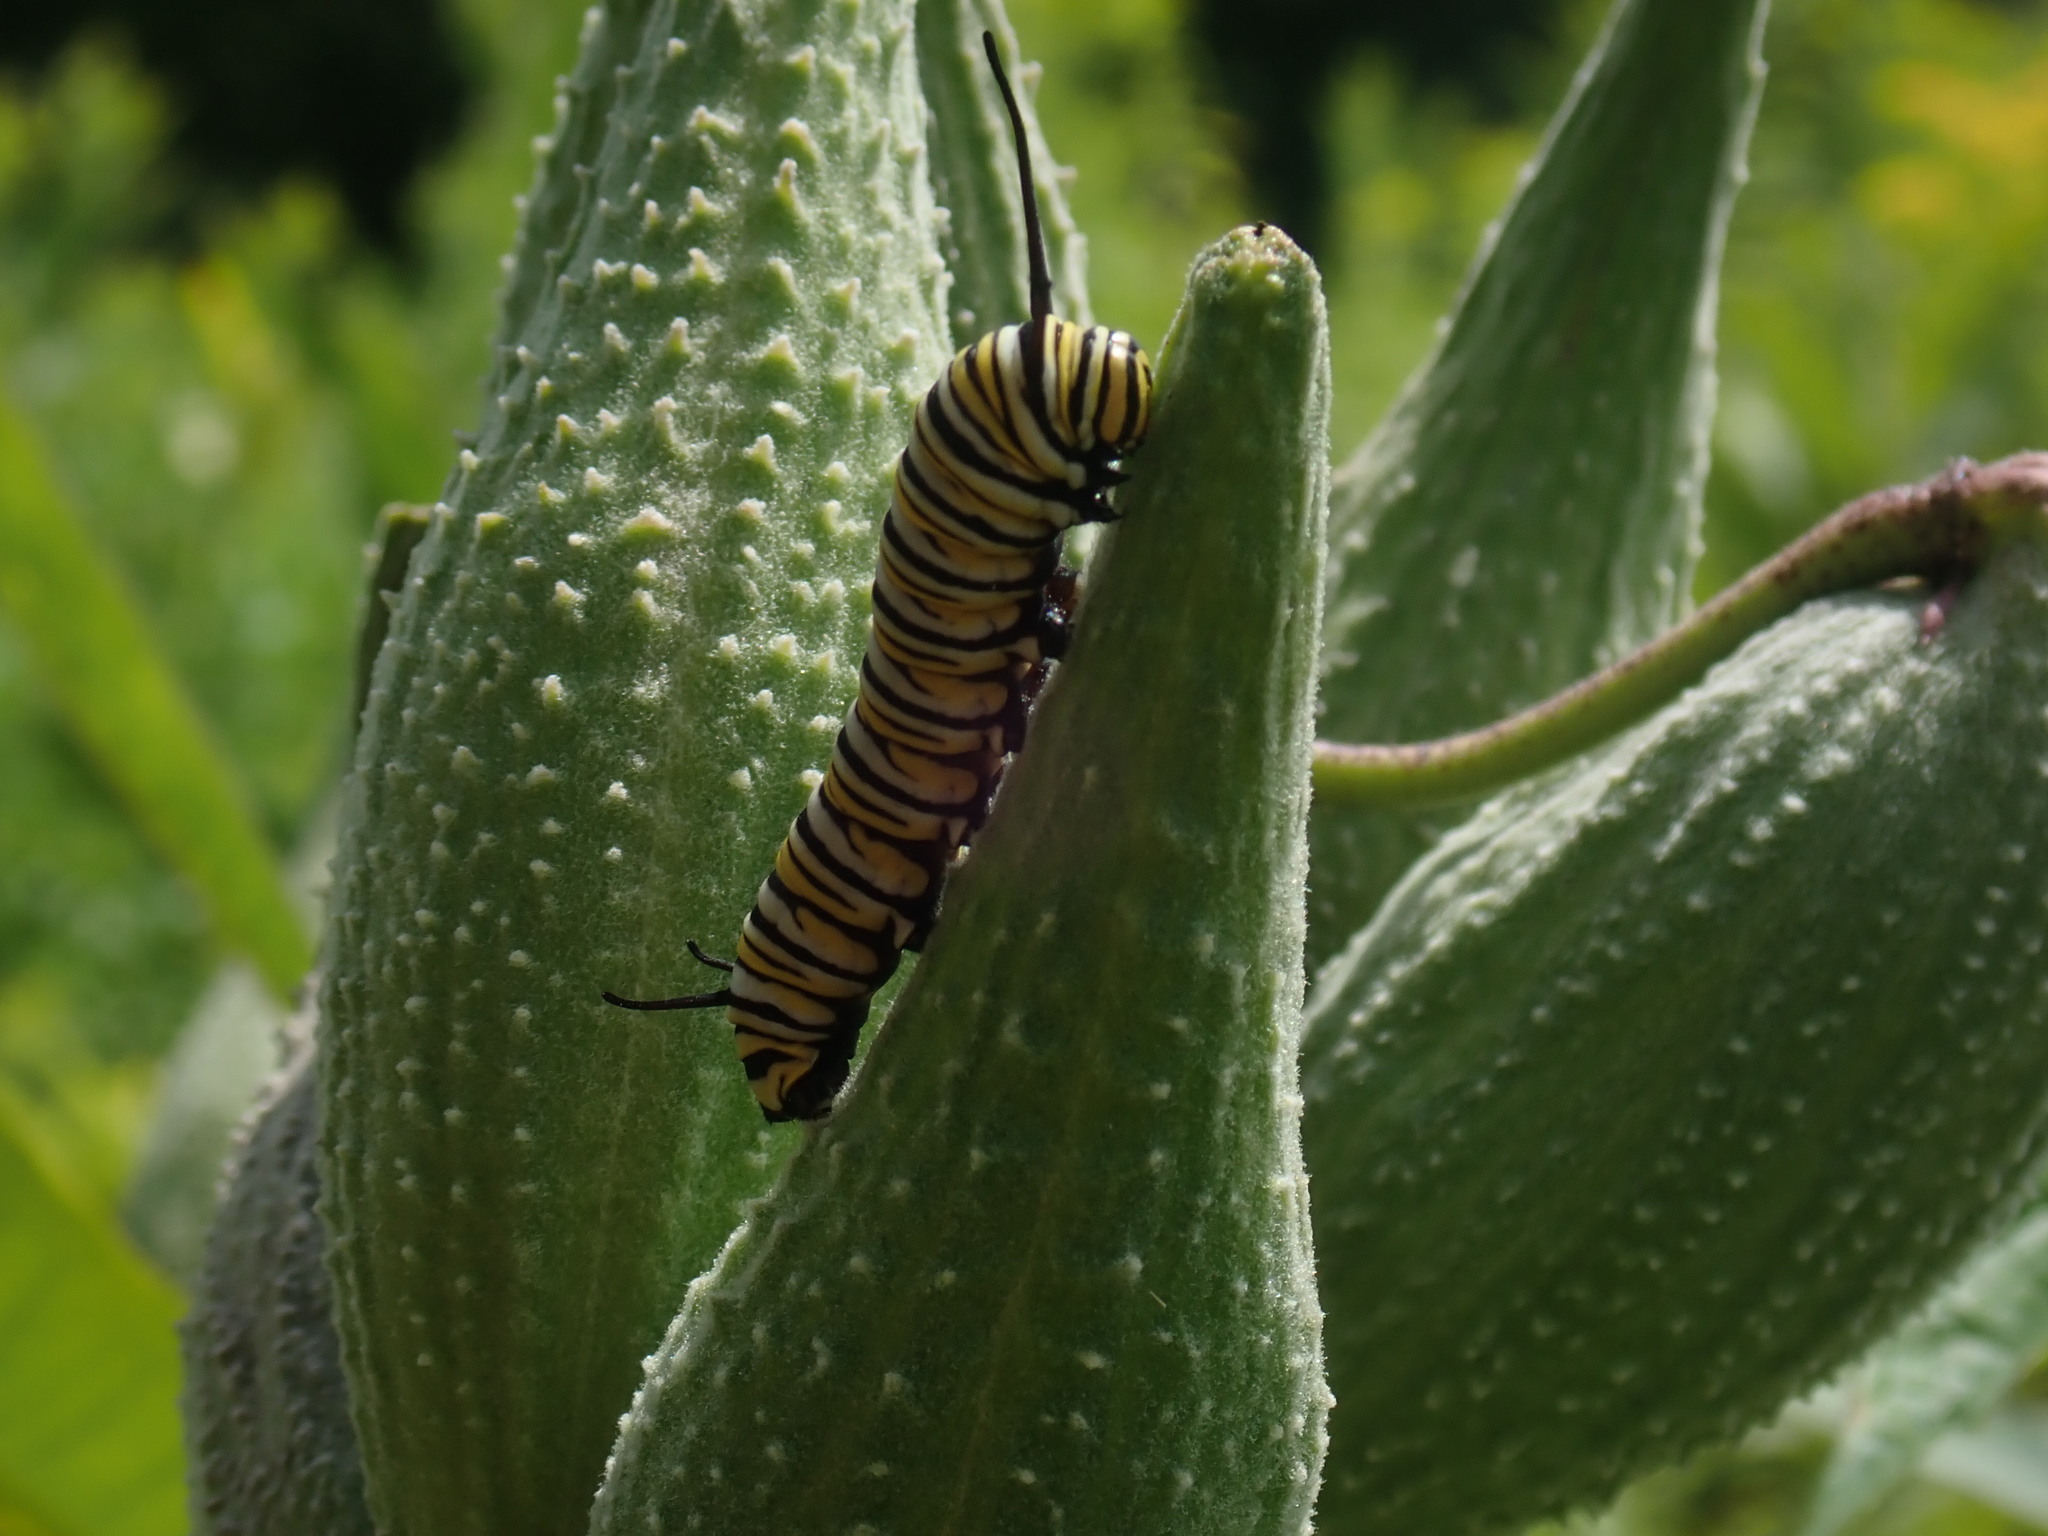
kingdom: Animalia
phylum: Arthropoda
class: Insecta
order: Lepidoptera
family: Nymphalidae
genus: Danaus
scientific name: Danaus plexippus
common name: Monarch
